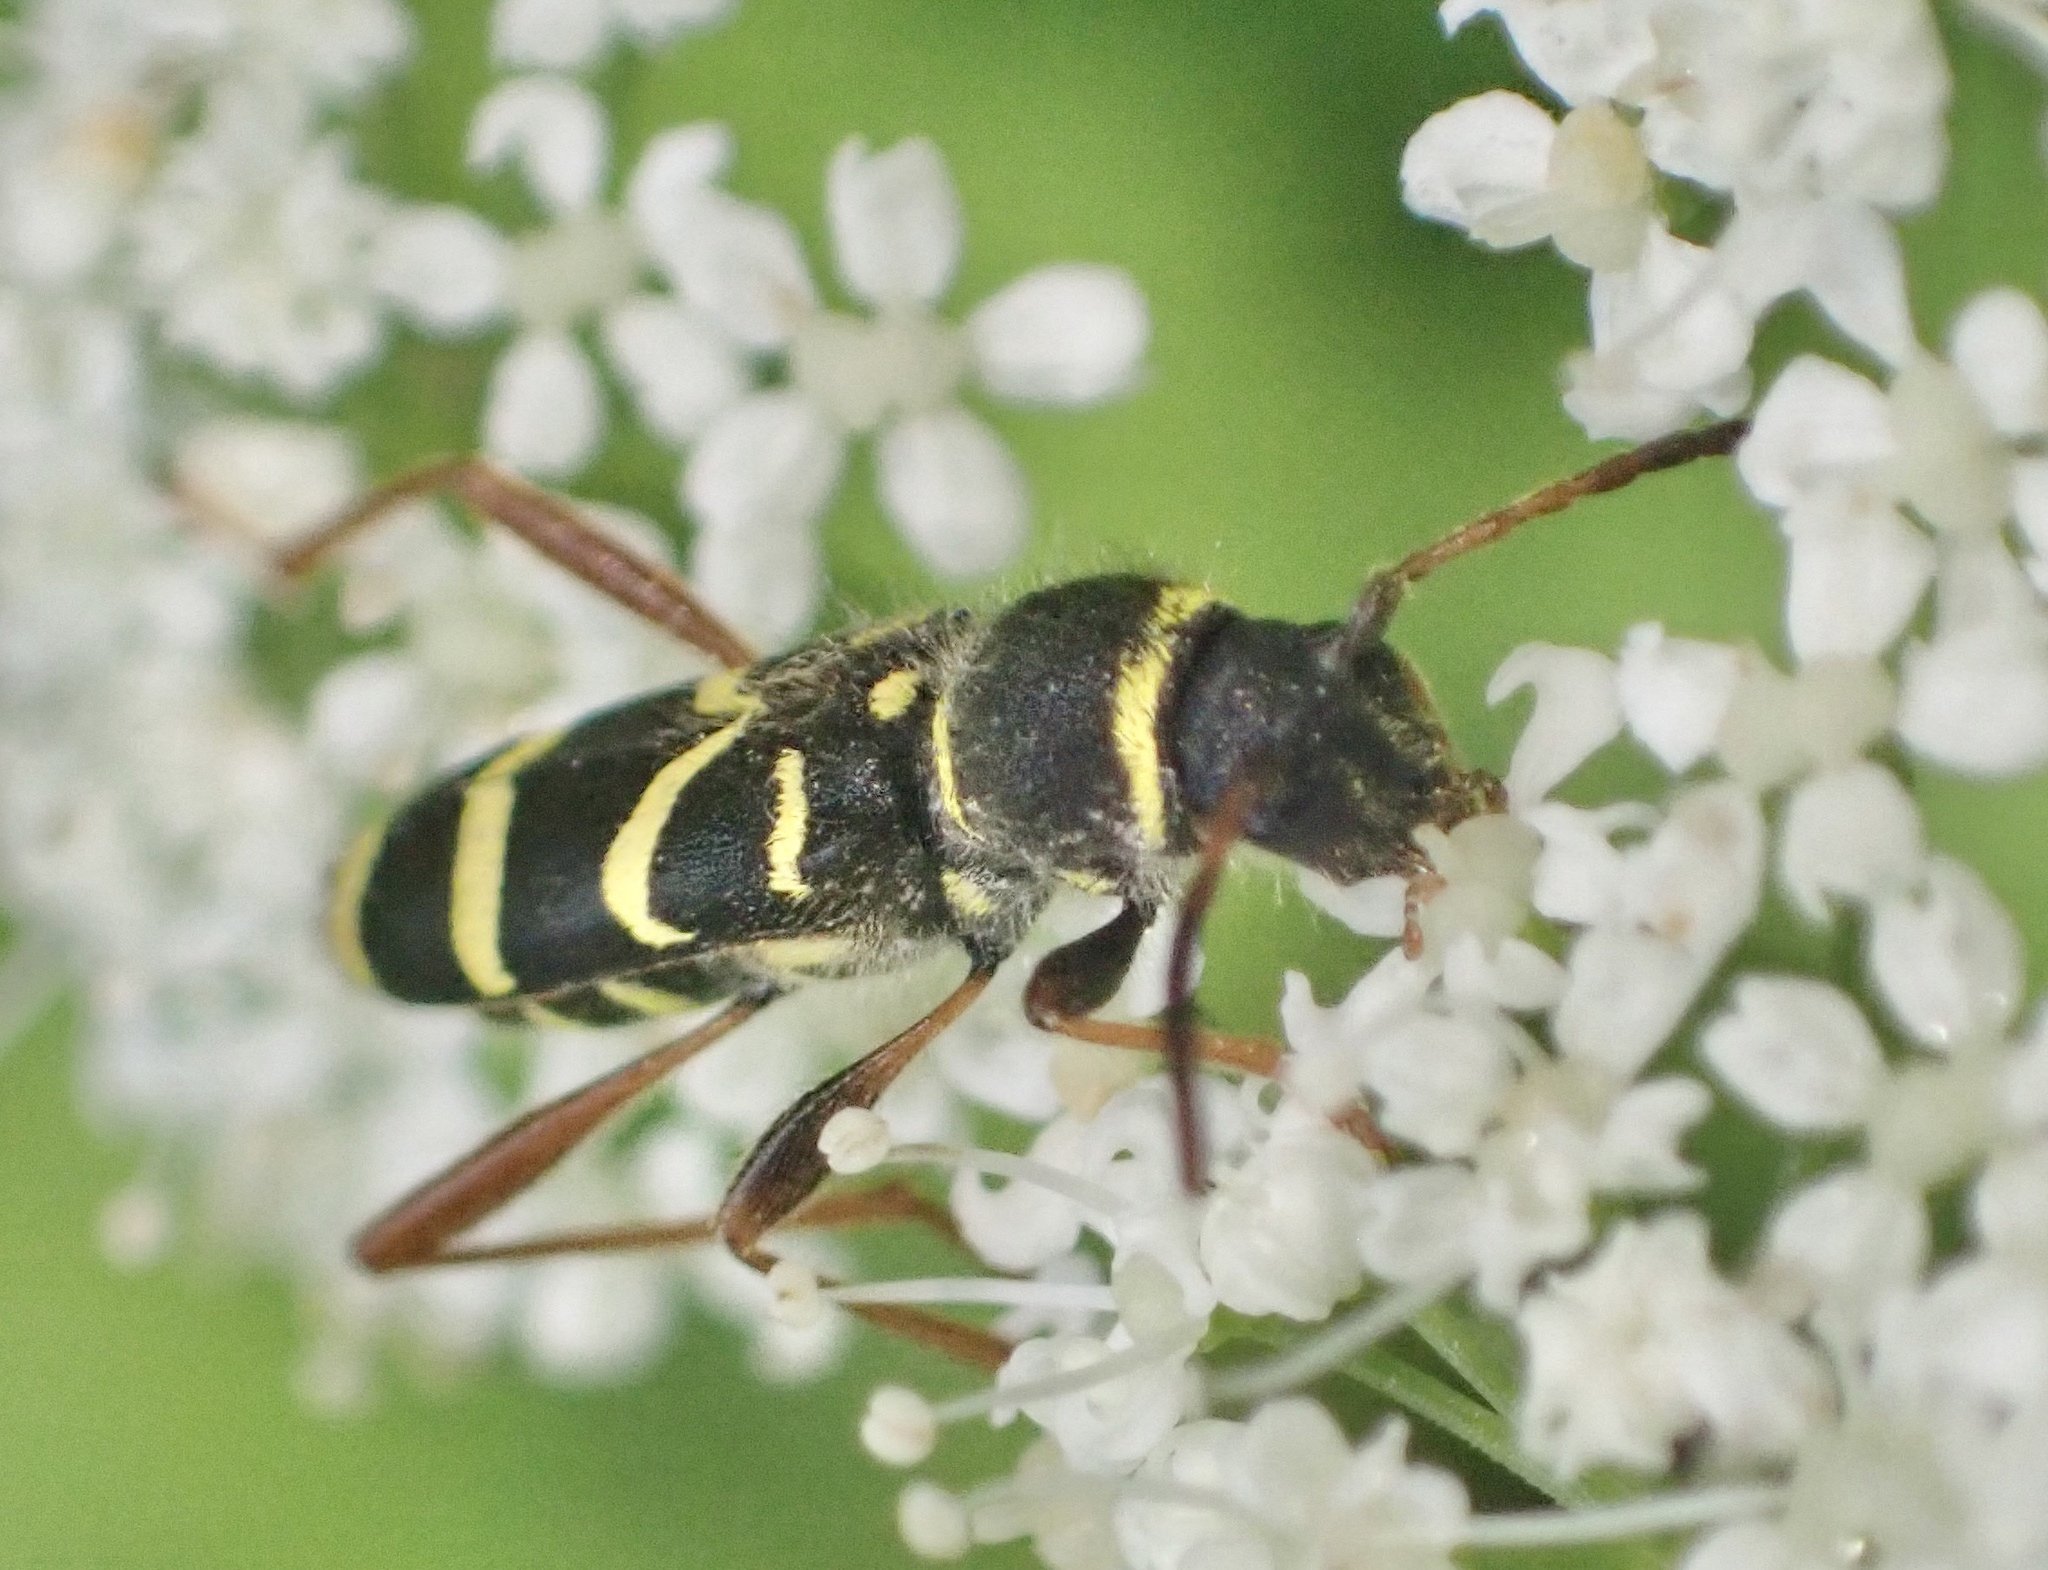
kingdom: Animalia
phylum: Arthropoda
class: Insecta
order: Coleoptera
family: Cerambycidae
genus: Clytus
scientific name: Clytus arietis
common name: Wasp beetle
